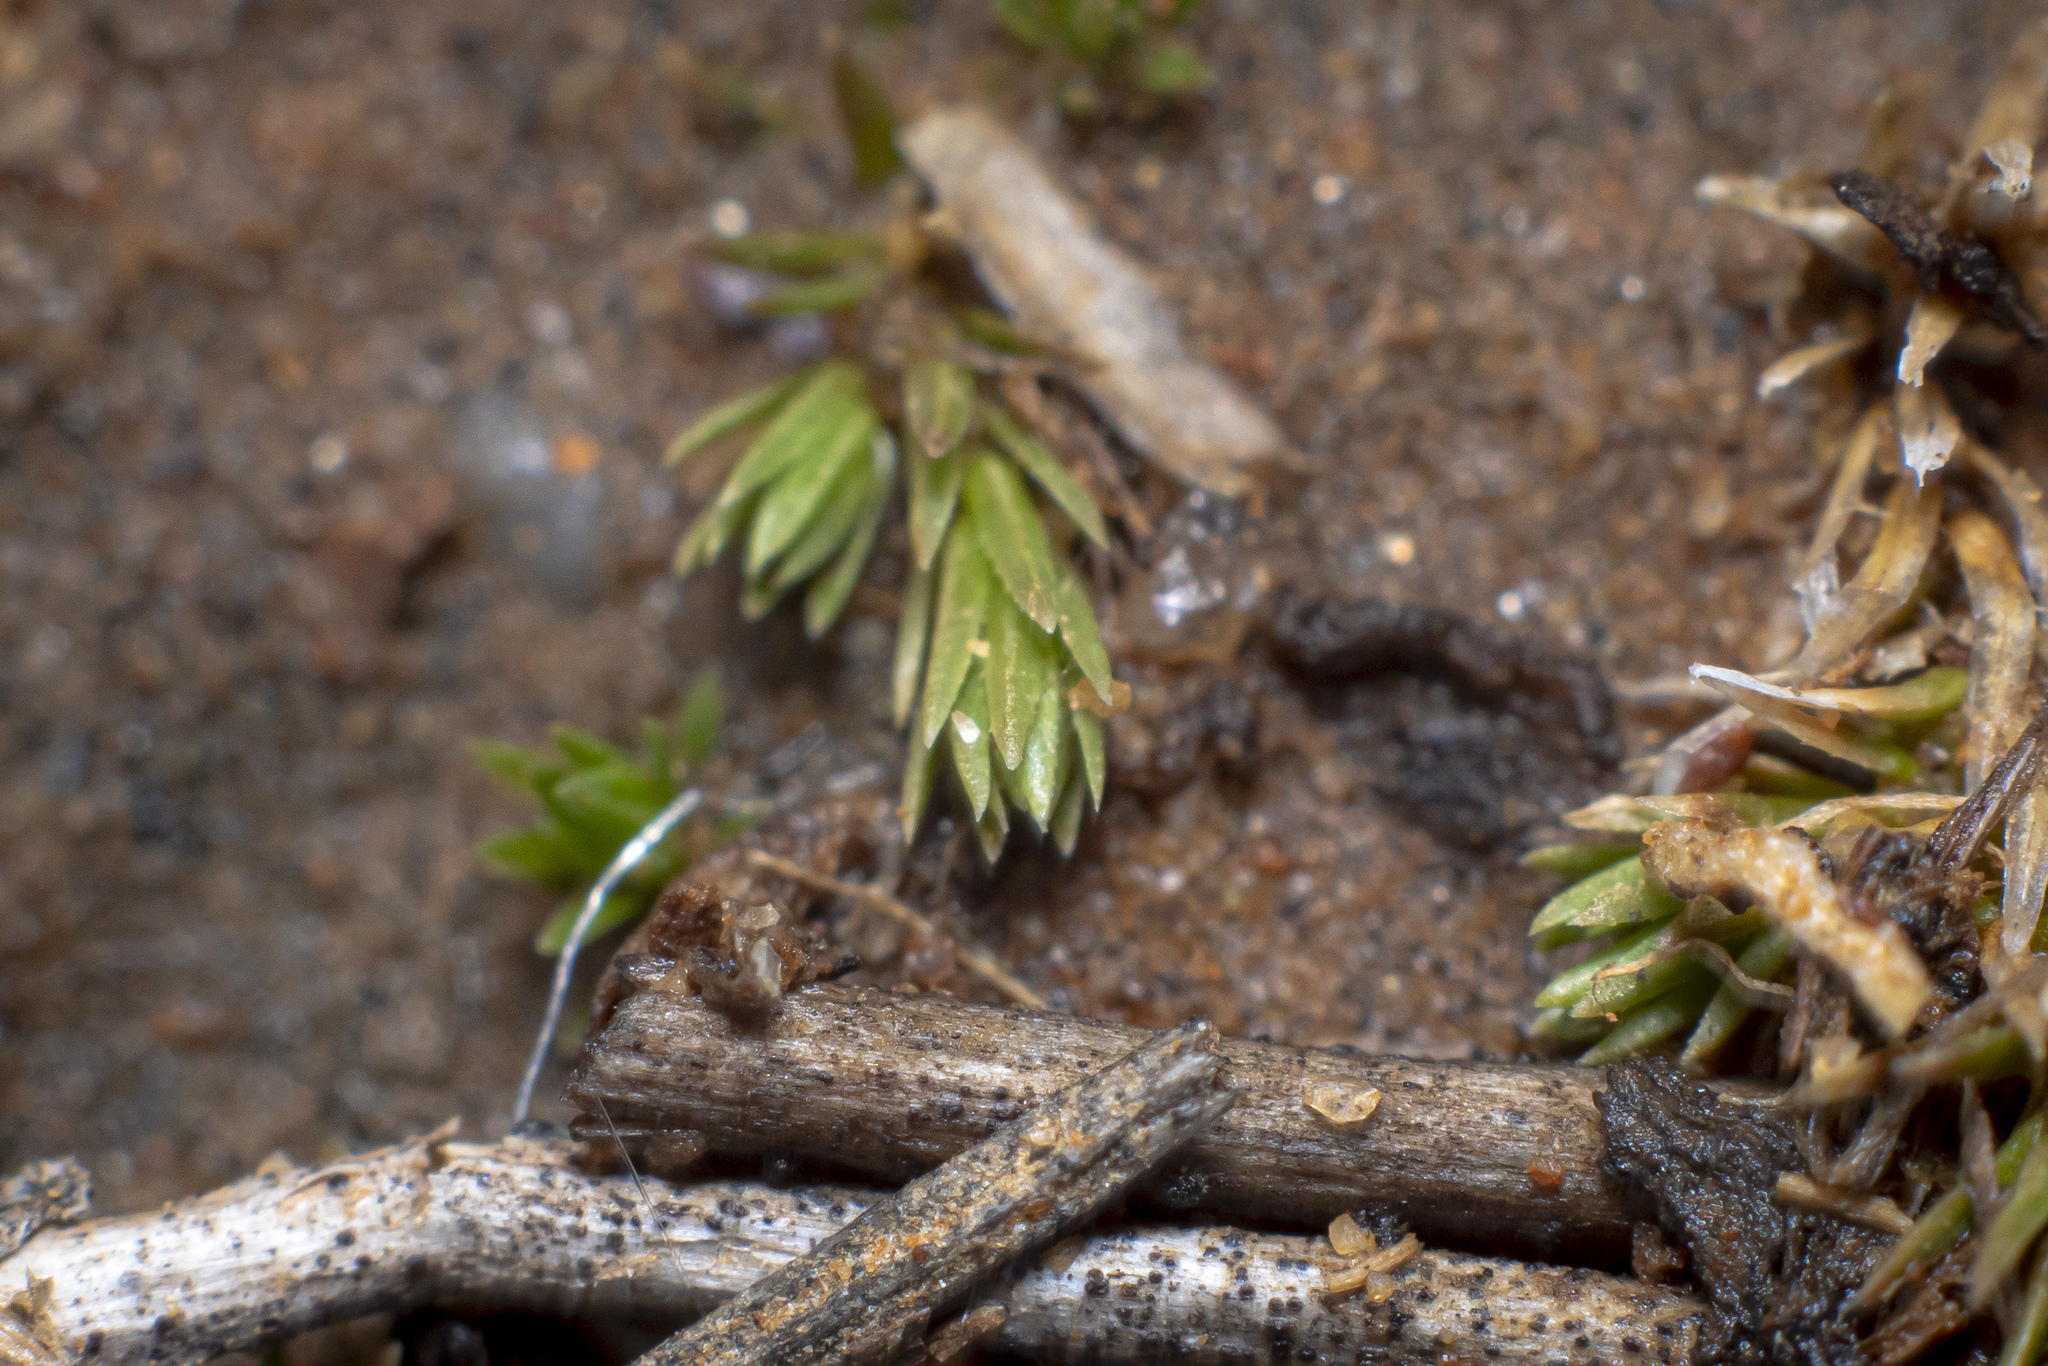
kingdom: Plantae
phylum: Tracheophyta
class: Lycopodiopsida
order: Selaginellales
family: Selaginellaceae
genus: Selaginella
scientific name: Selaginella cinerascens
